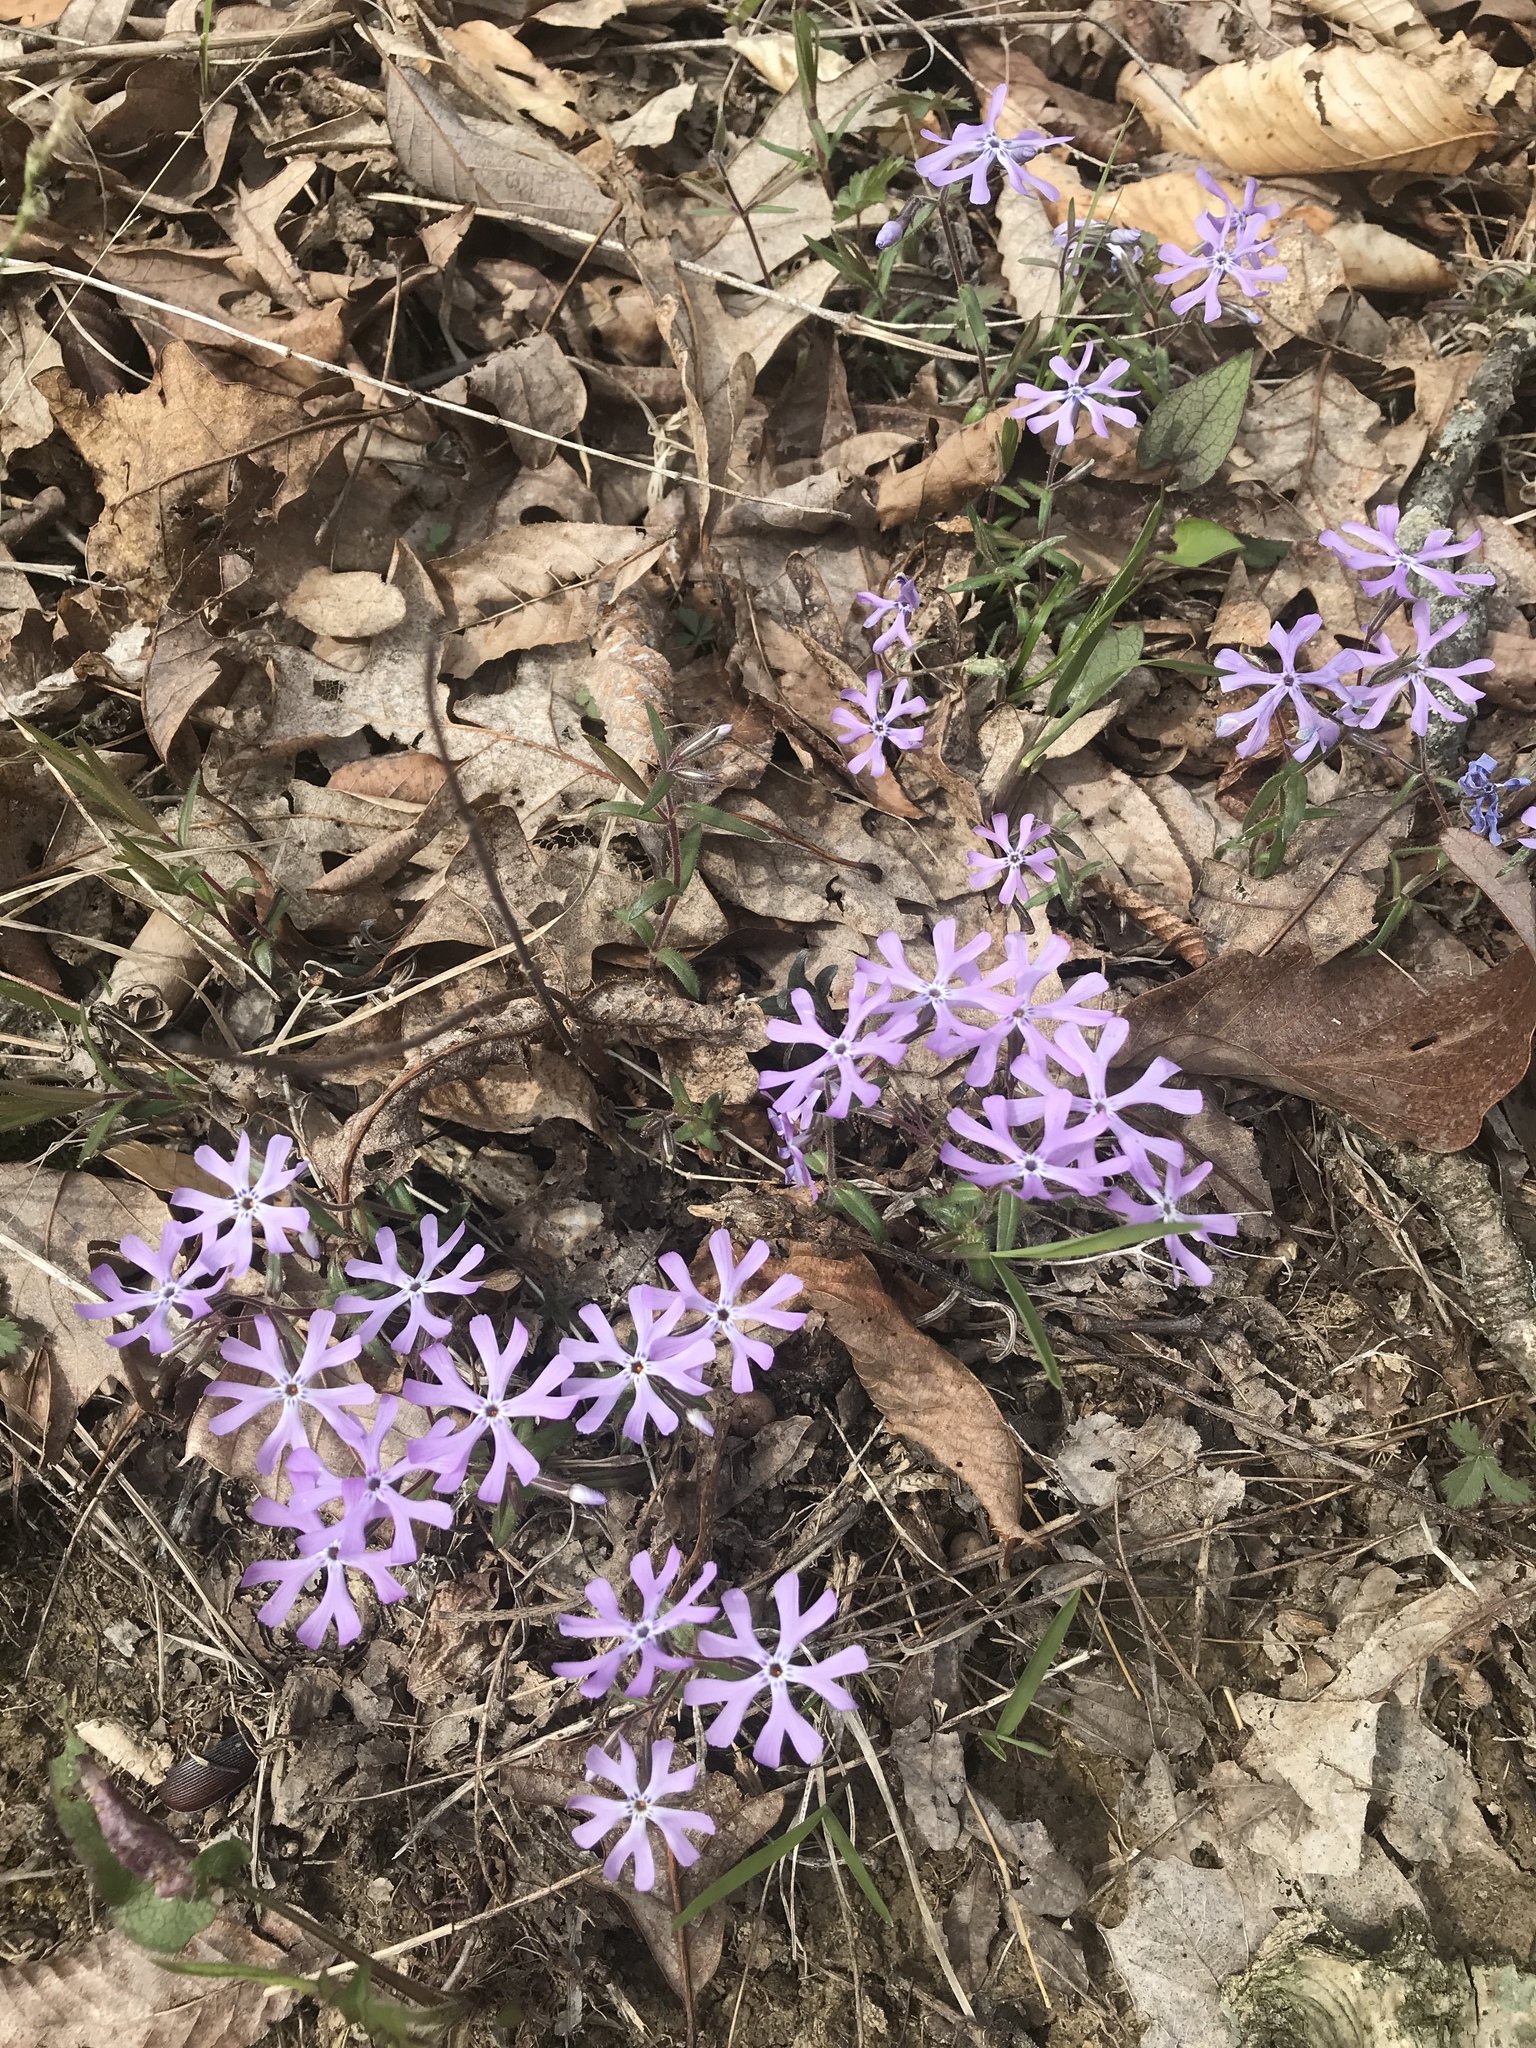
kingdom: Plantae
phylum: Tracheophyta
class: Magnoliopsida
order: Ericales
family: Polemoniaceae
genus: Phlox
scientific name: Phlox bifida
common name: Sand phlox
